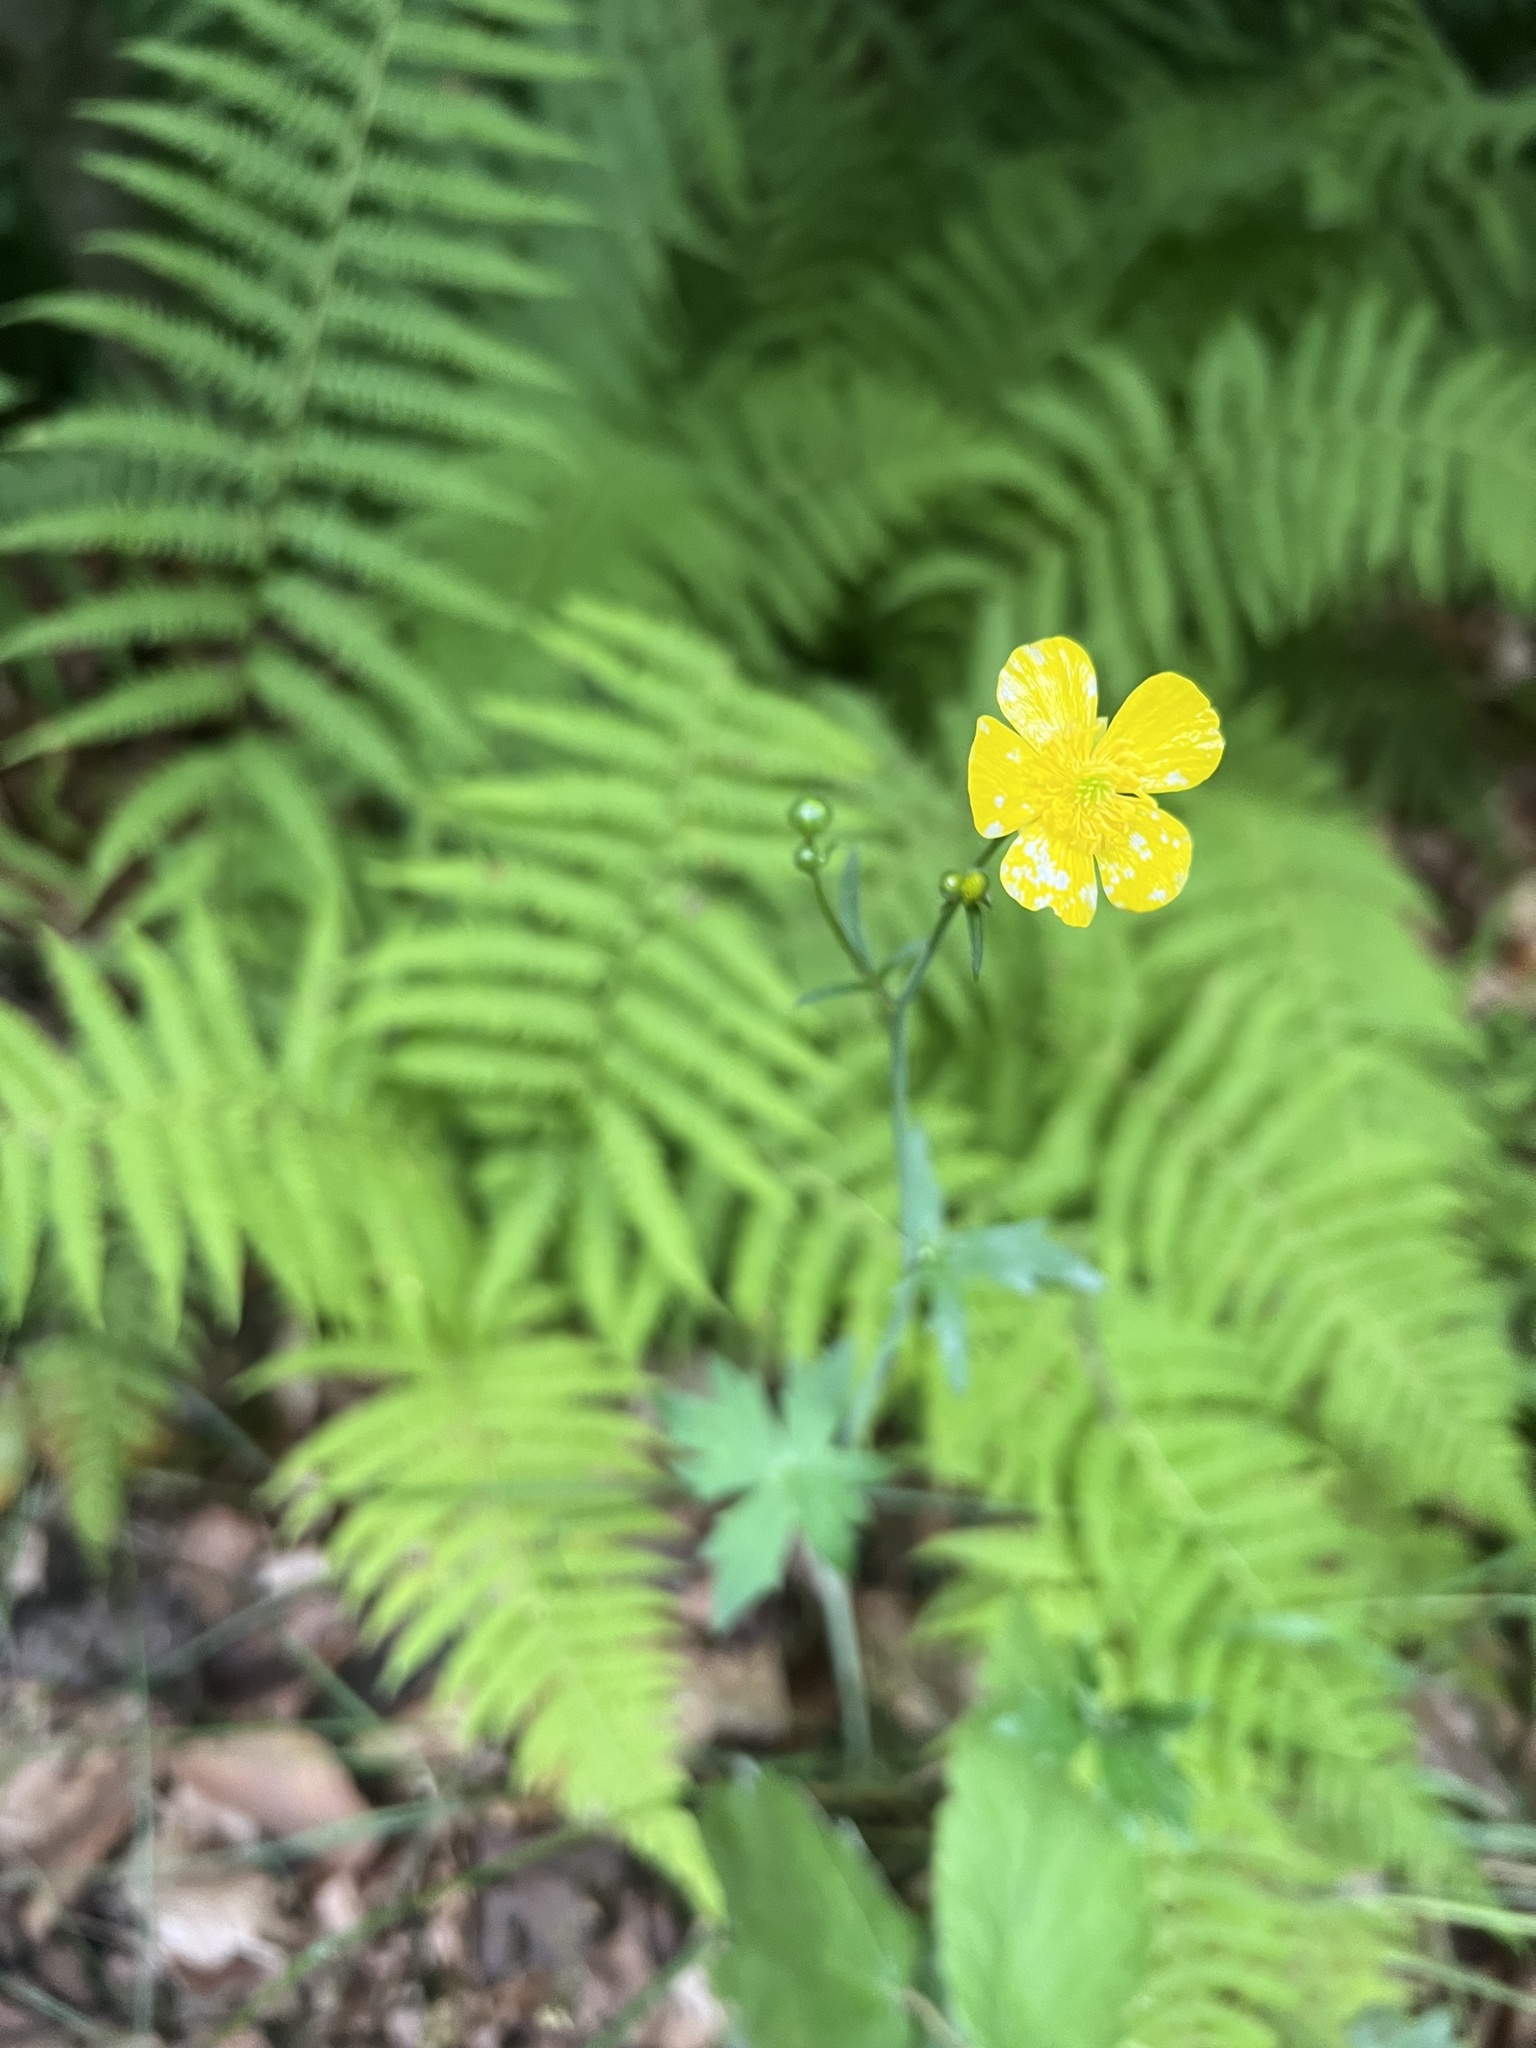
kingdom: Plantae
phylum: Tracheophyta
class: Magnoliopsida
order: Ranunculales
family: Ranunculaceae
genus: Ranunculus
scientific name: Ranunculus acris
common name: Meadow buttercup
